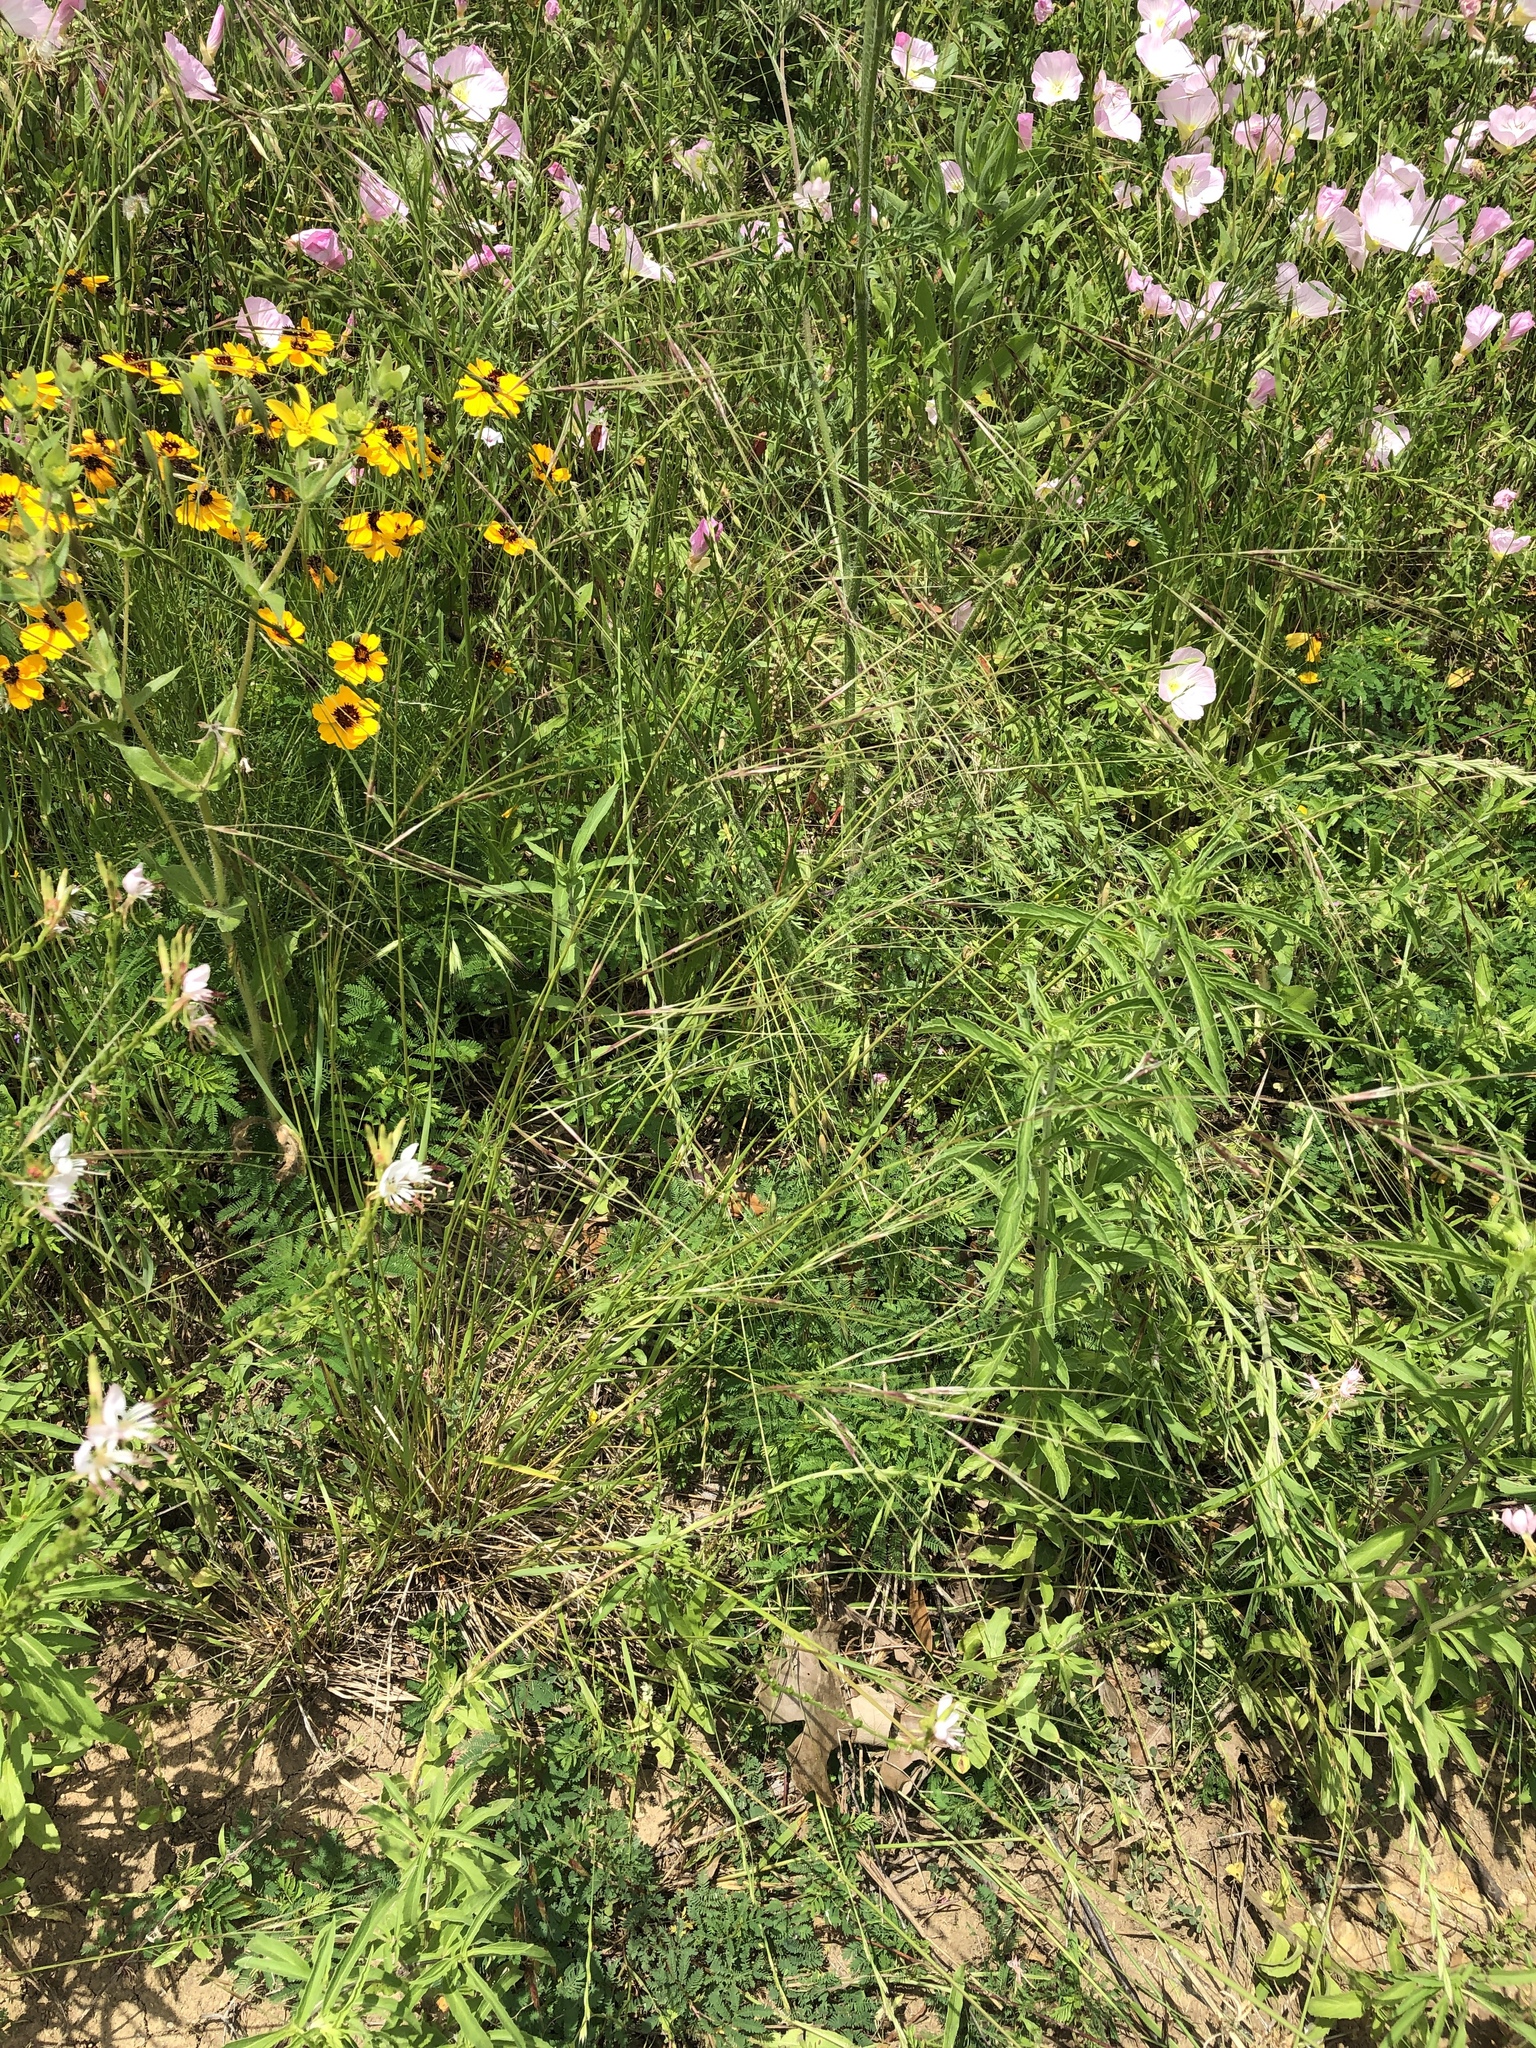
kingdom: Plantae
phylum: Tracheophyta
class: Liliopsida
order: Poales
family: Poaceae
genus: Nassella
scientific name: Nassella leucotricha
